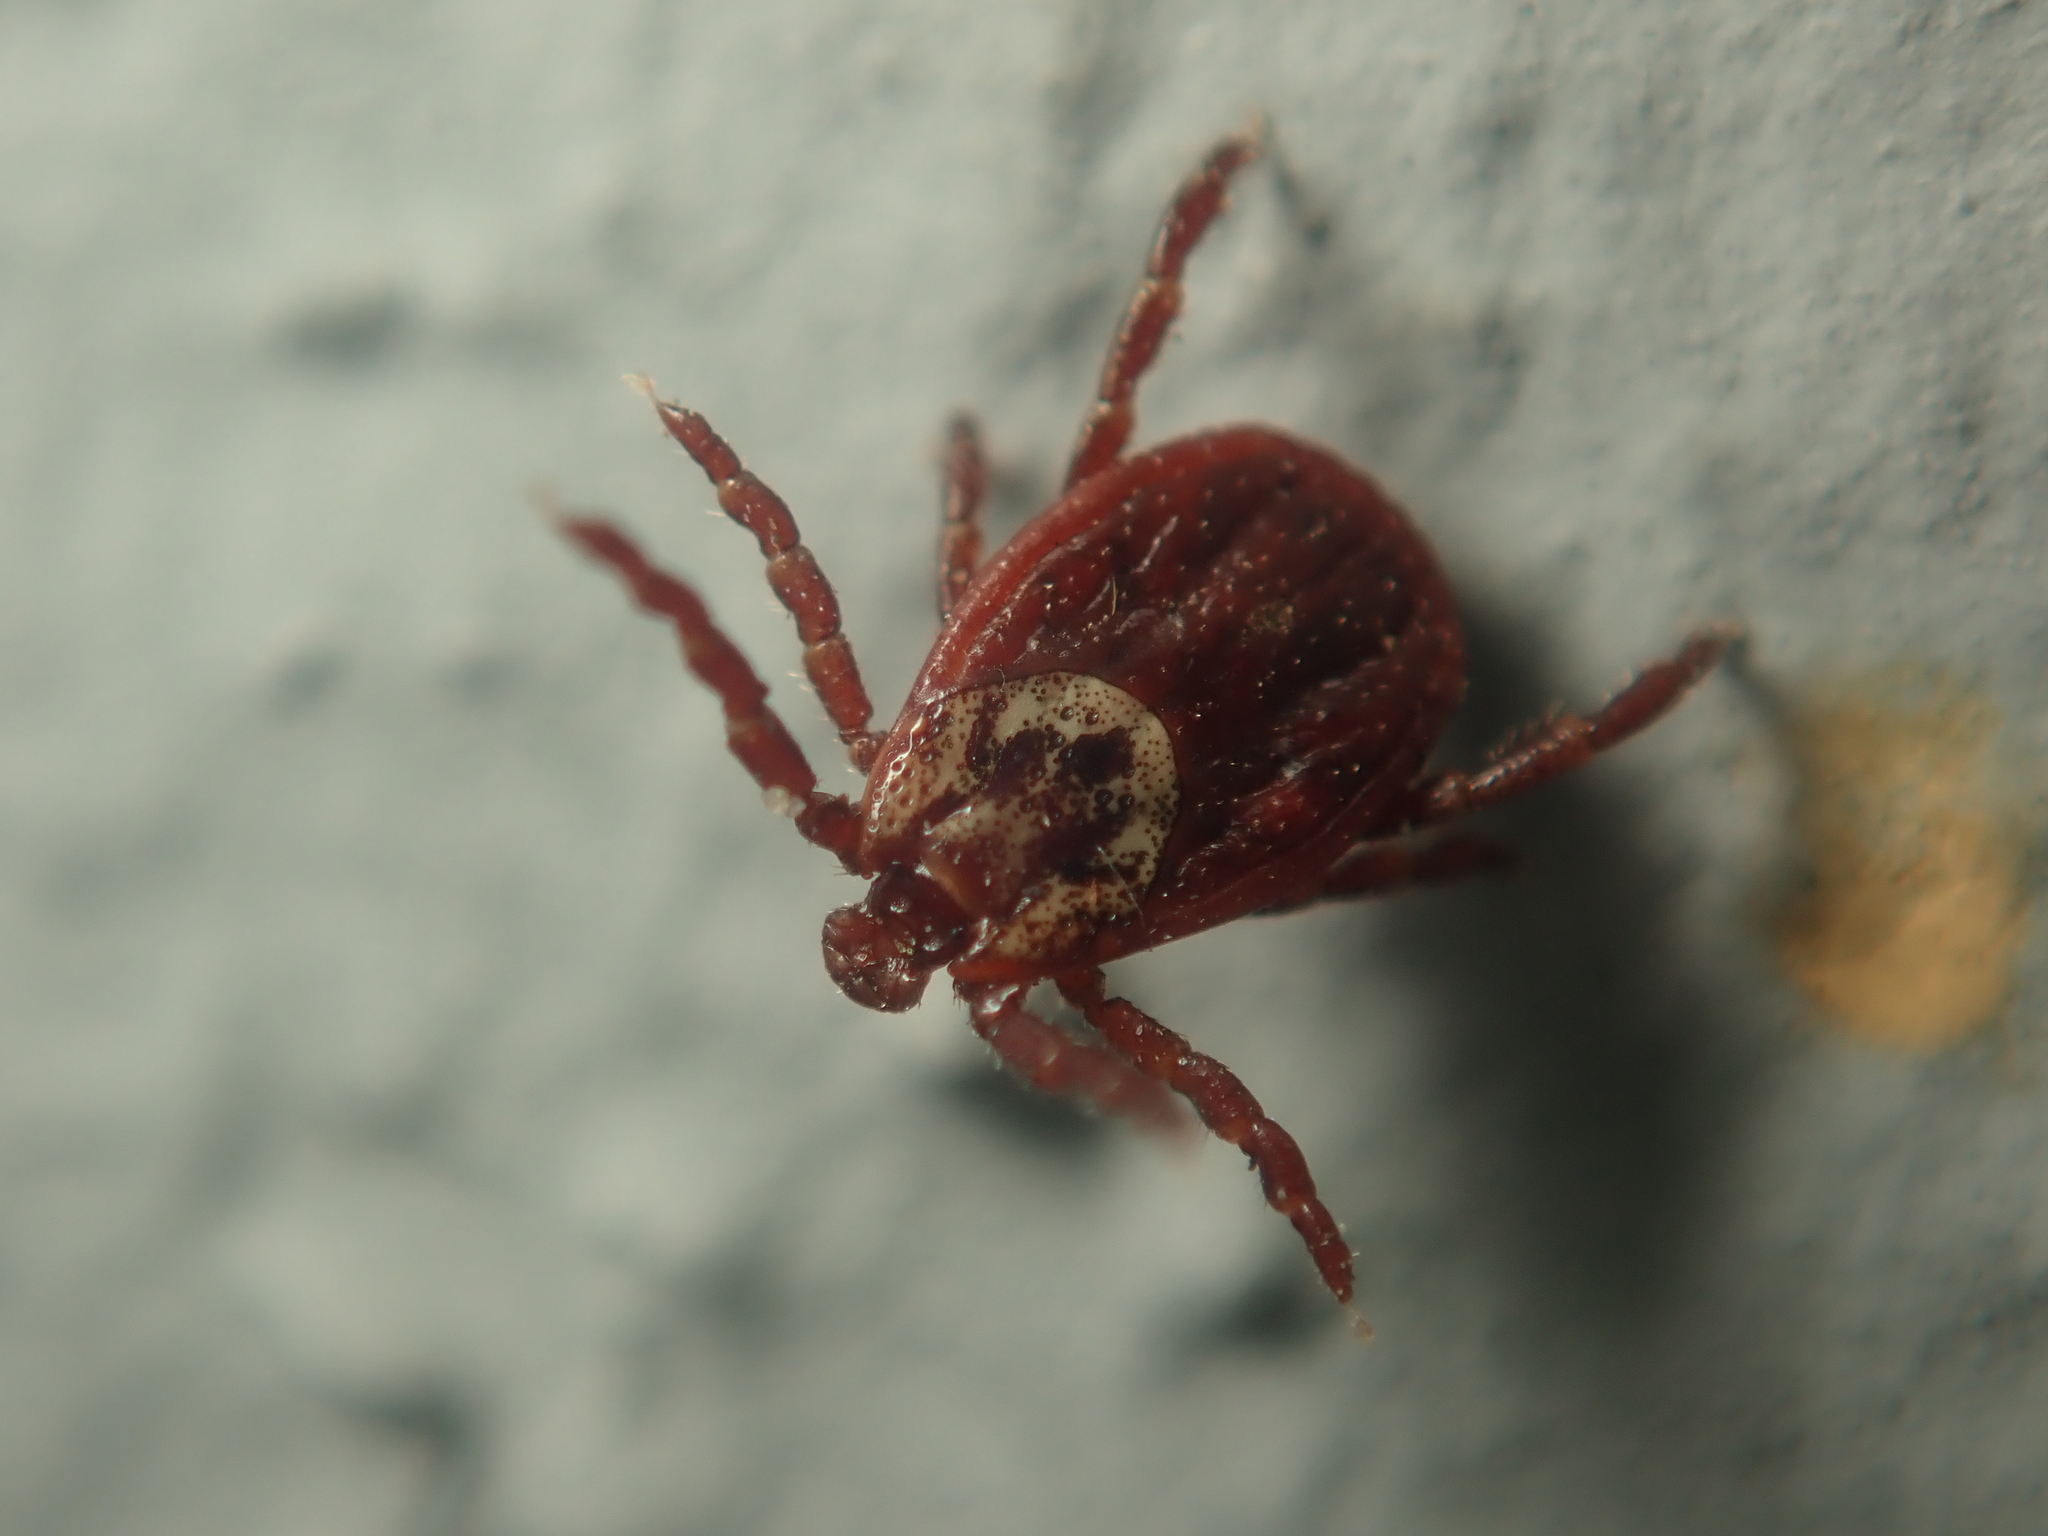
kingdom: Animalia
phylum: Arthropoda
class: Arachnida
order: Ixodida
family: Ixodidae
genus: Dermacentor
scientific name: Dermacentor reticulatus
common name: Ornate cow tick
